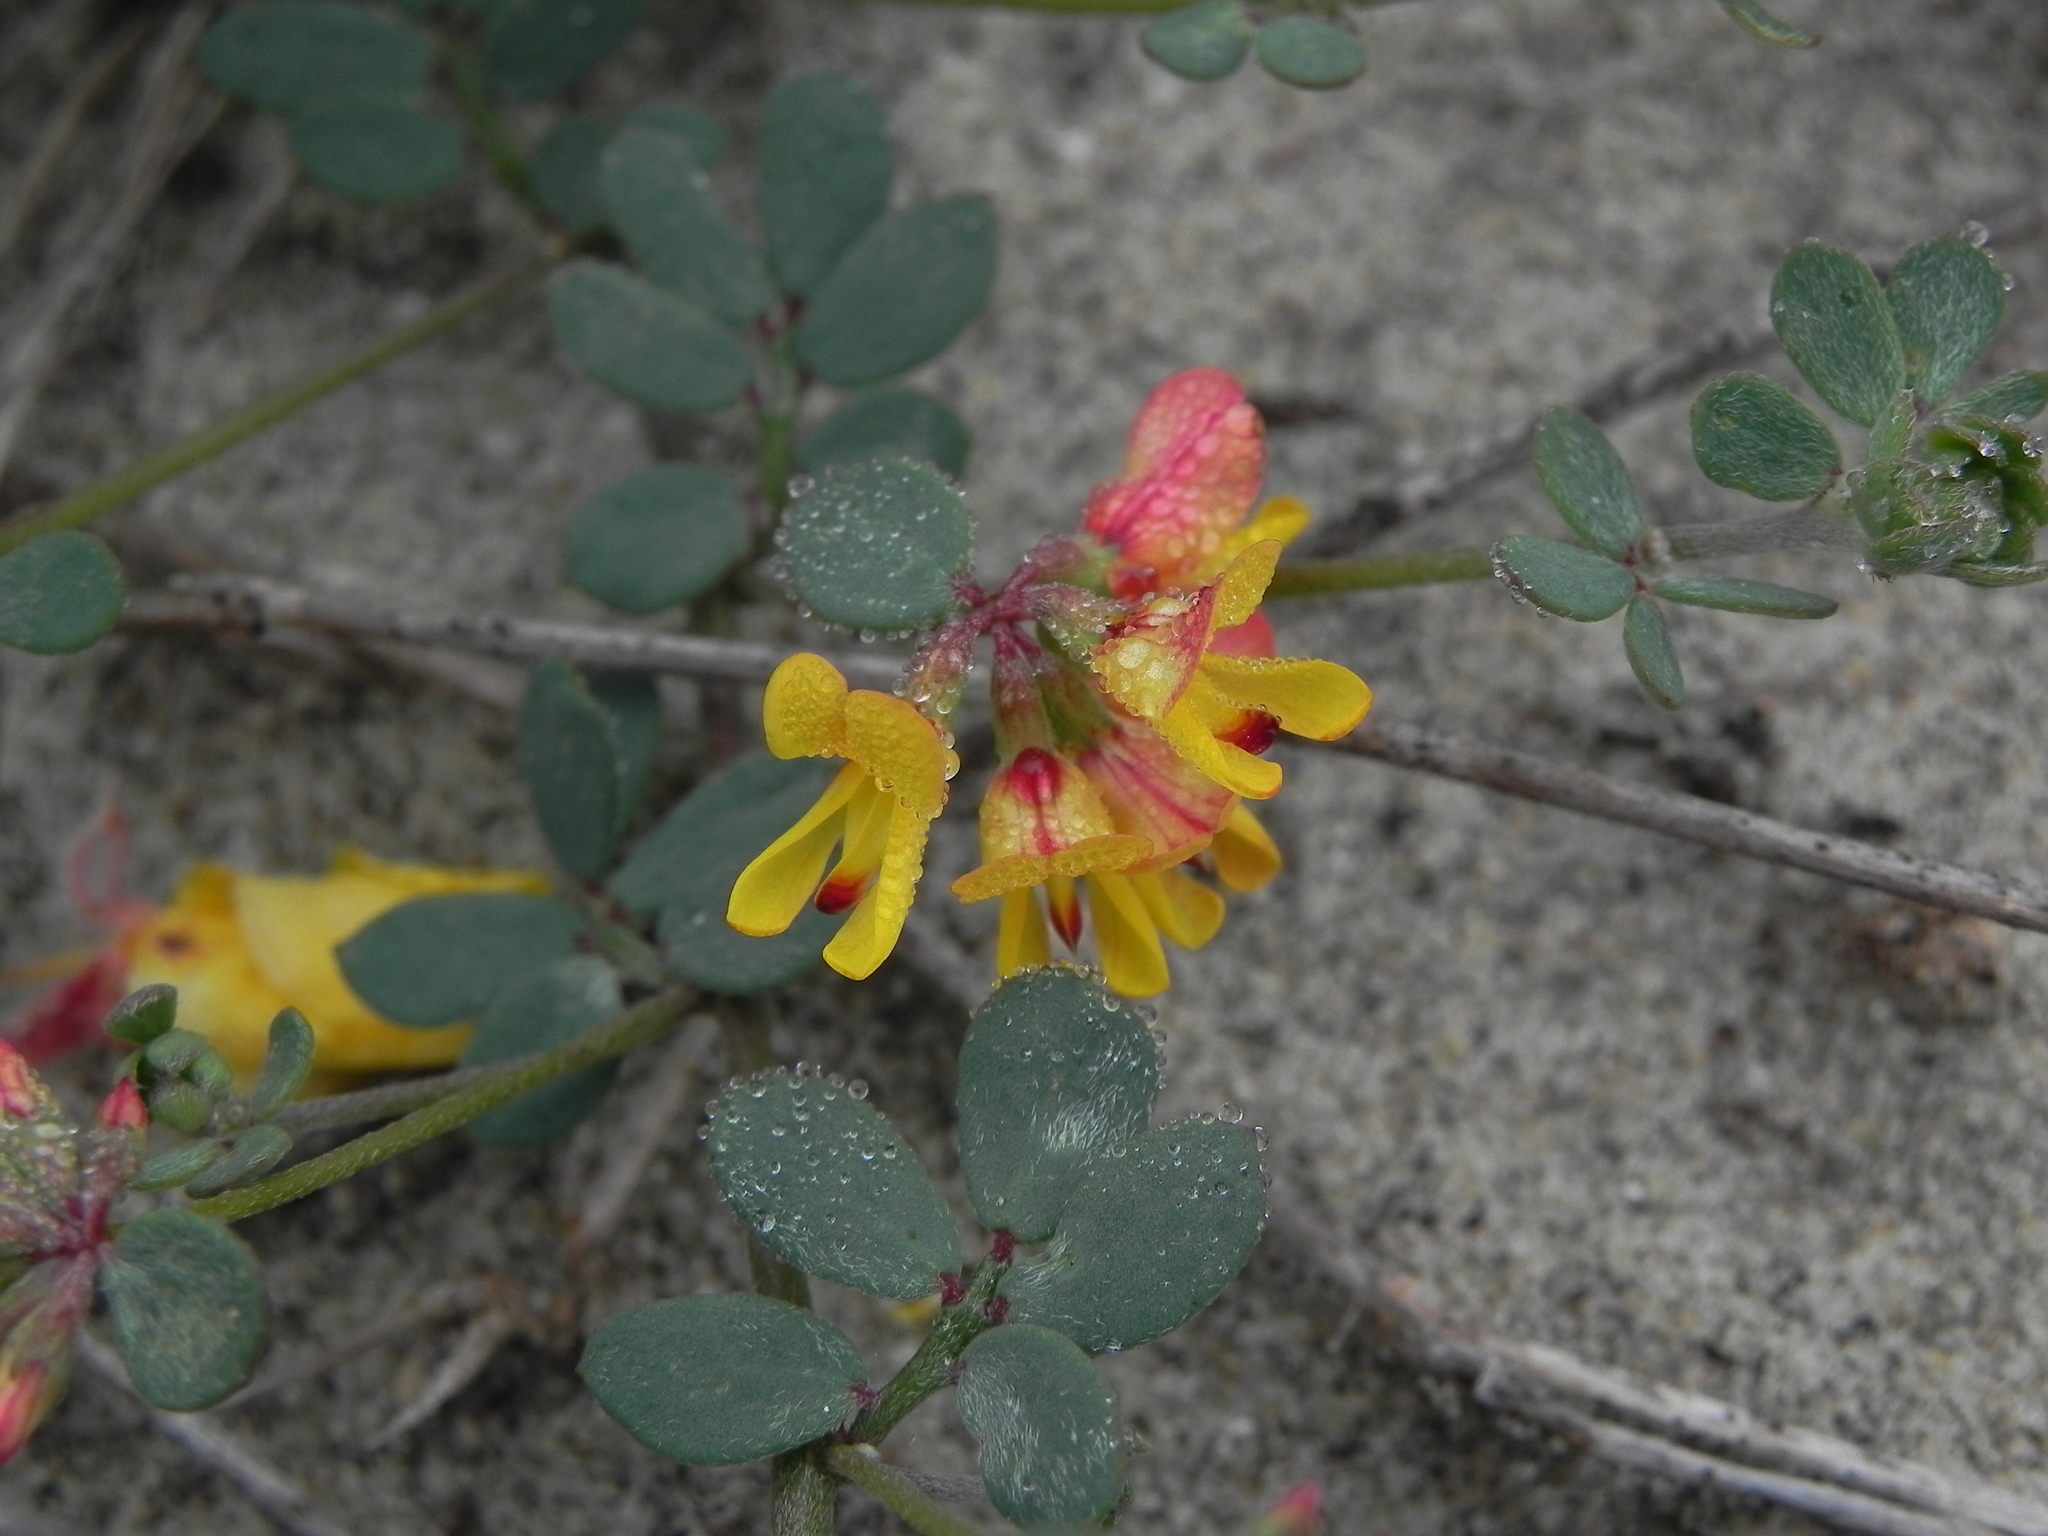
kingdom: Plantae
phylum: Tracheophyta
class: Magnoliopsida
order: Fabales
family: Fabaceae
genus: Acmispon
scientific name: Acmispon prostratus
